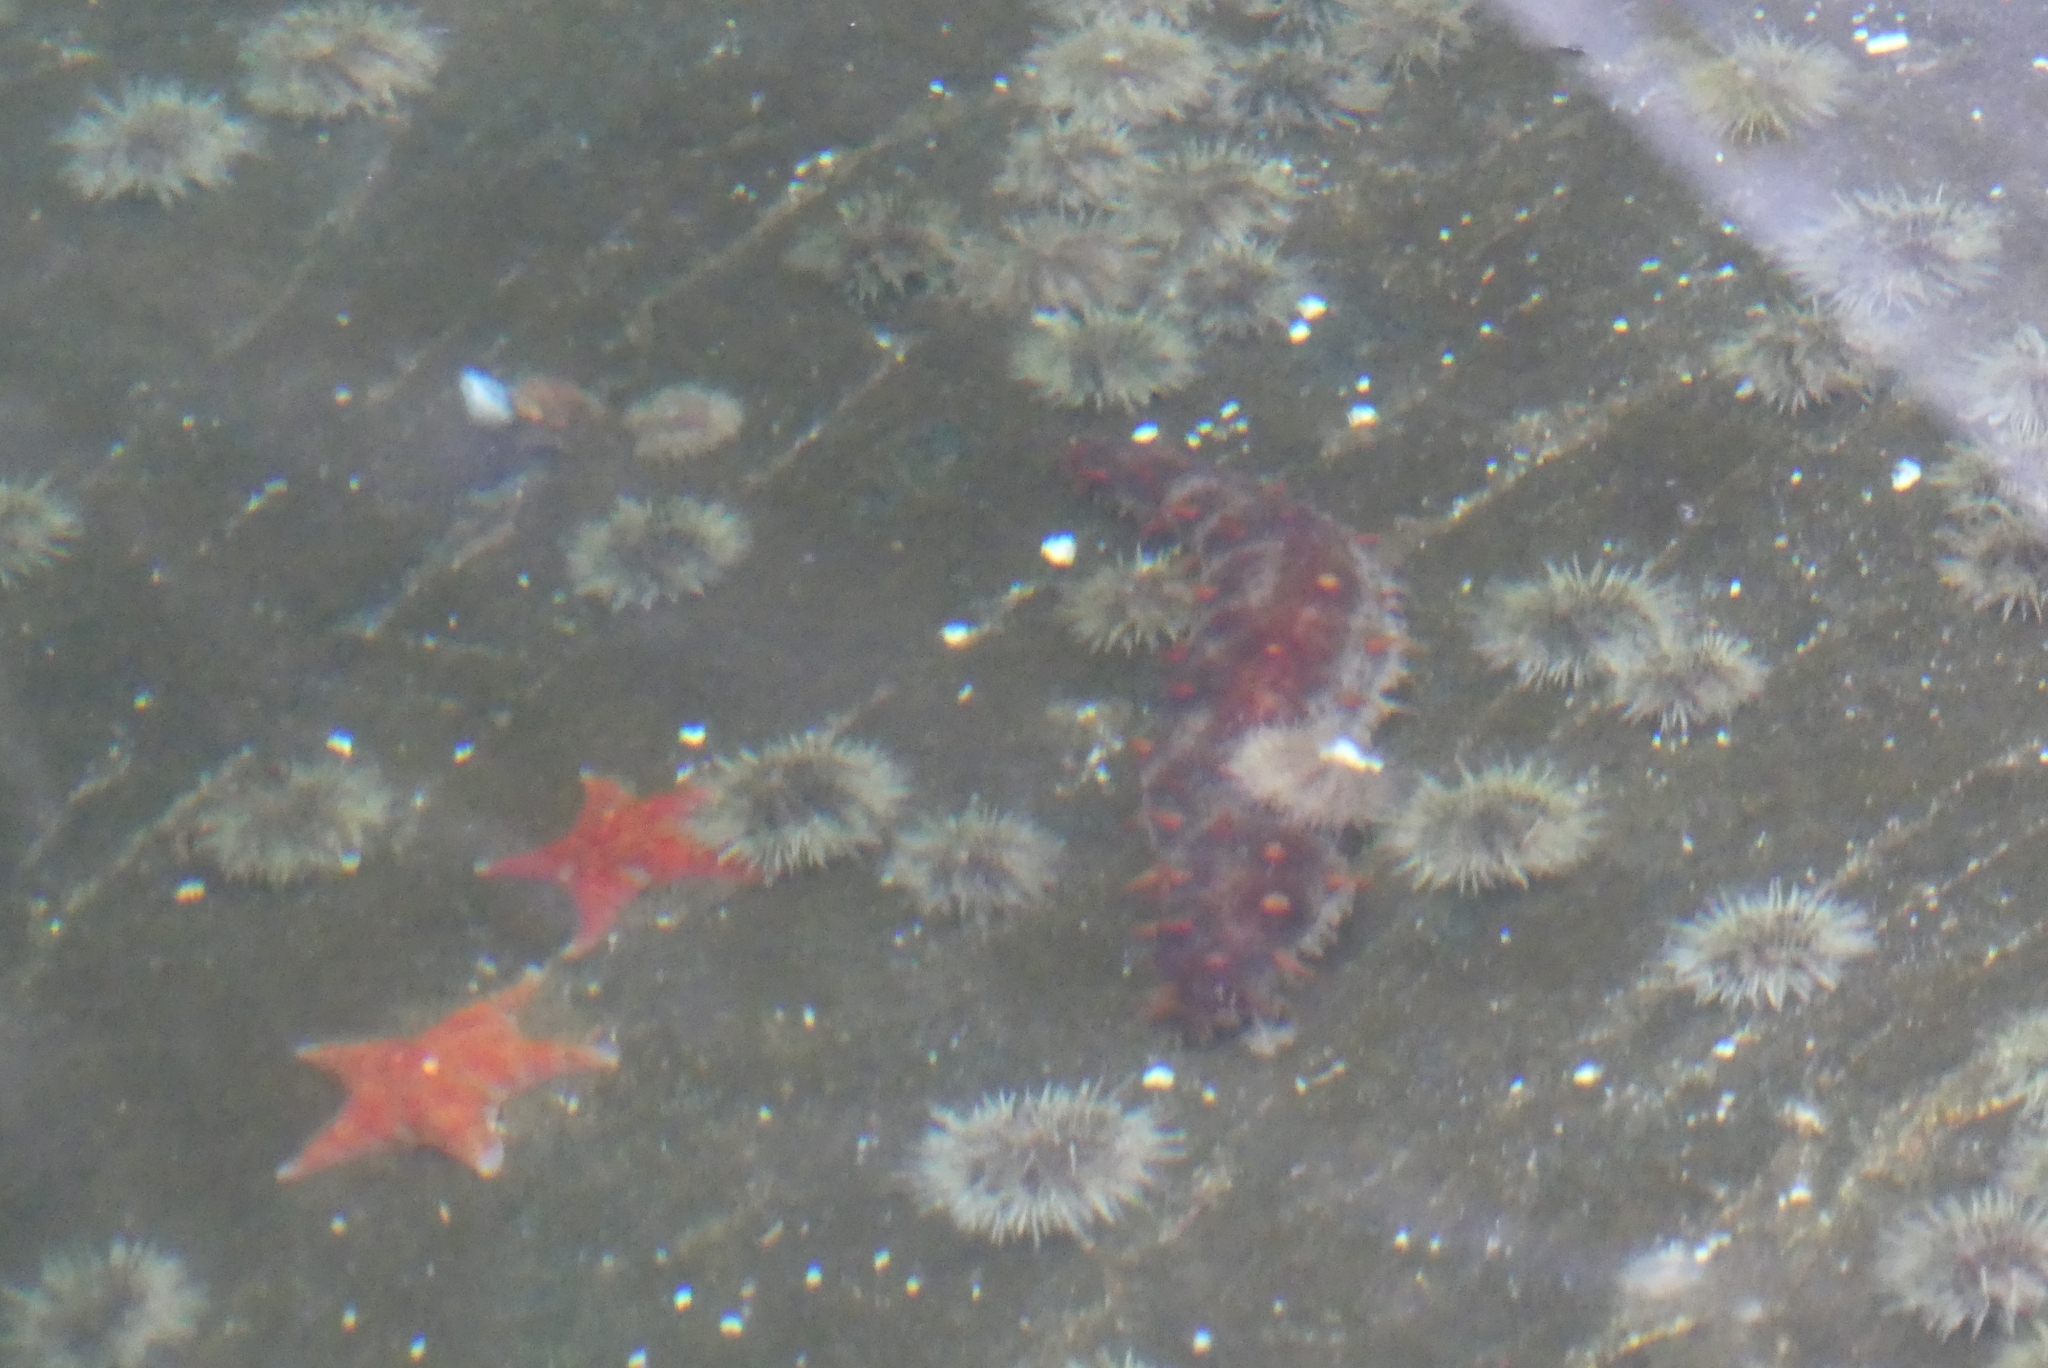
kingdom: Animalia
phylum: Echinodermata
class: Holothuroidea
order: Synallactida
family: Stichopodidae
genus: Apostichopus
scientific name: Apostichopus californicus
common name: California sea cucumber
